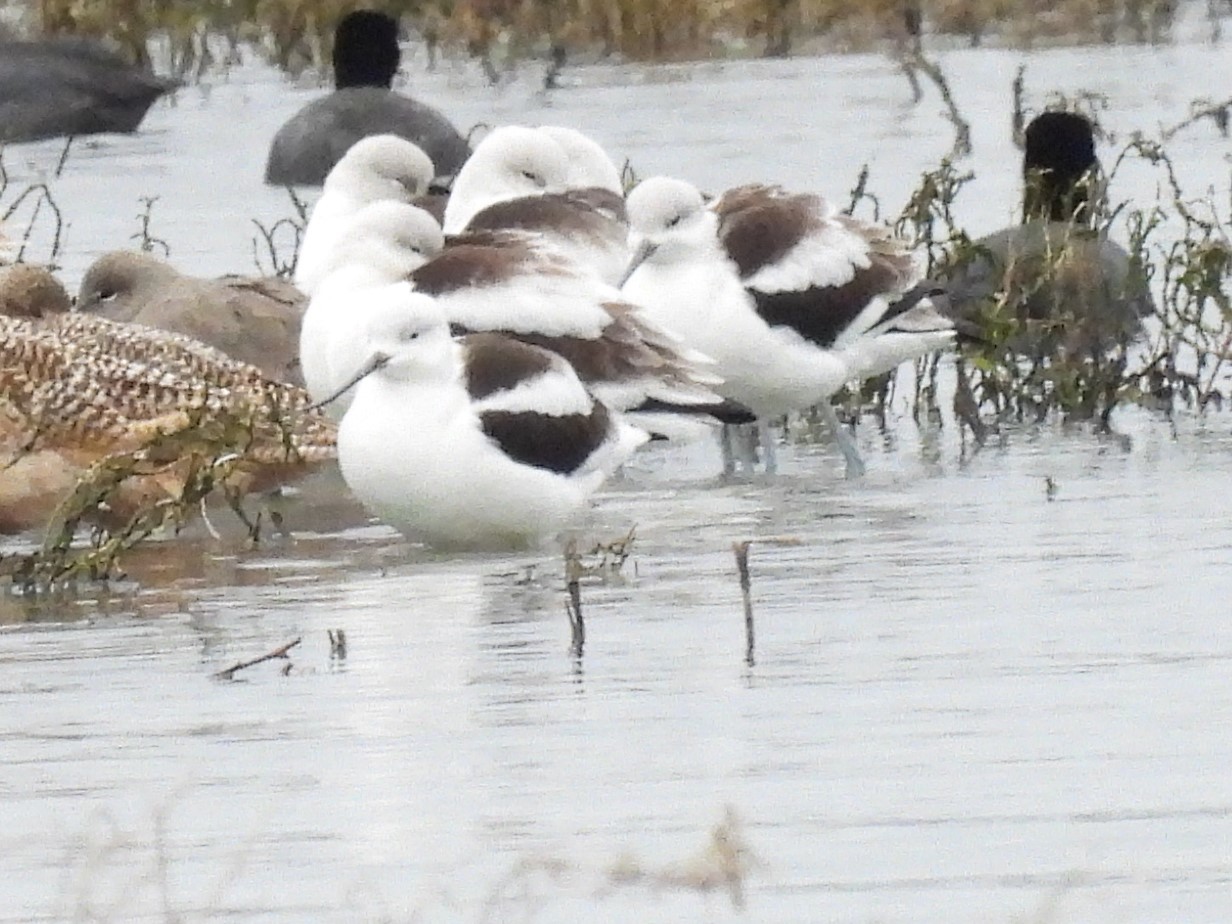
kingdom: Animalia
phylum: Chordata
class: Aves
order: Charadriiformes
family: Recurvirostridae
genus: Recurvirostra
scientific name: Recurvirostra americana
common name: American avocet
